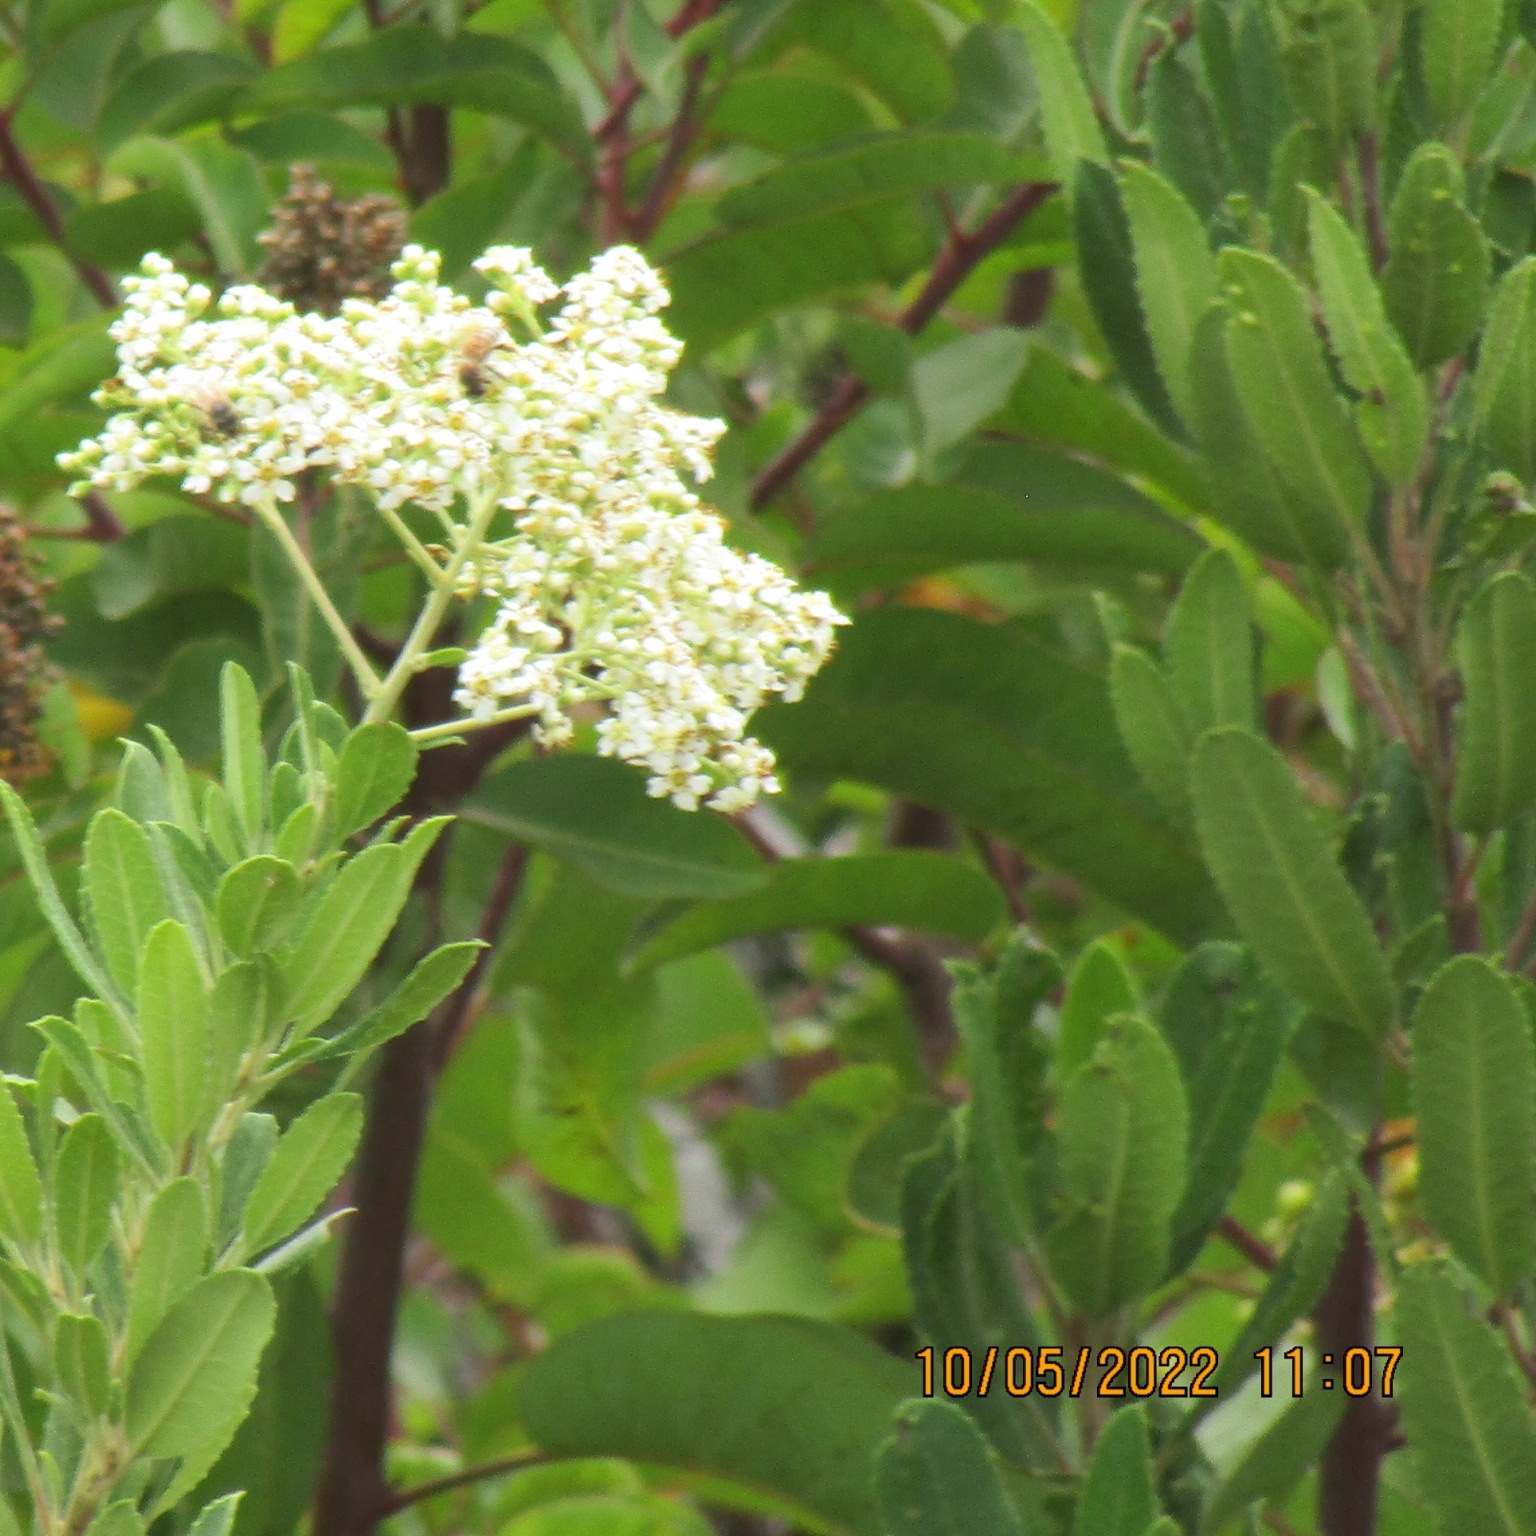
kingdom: Plantae
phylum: Tracheophyta
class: Magnoliopsida
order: Rosales
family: Rosaceae
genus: Heteromeles
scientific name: Heteromeles arbutifolia
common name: California-holly
